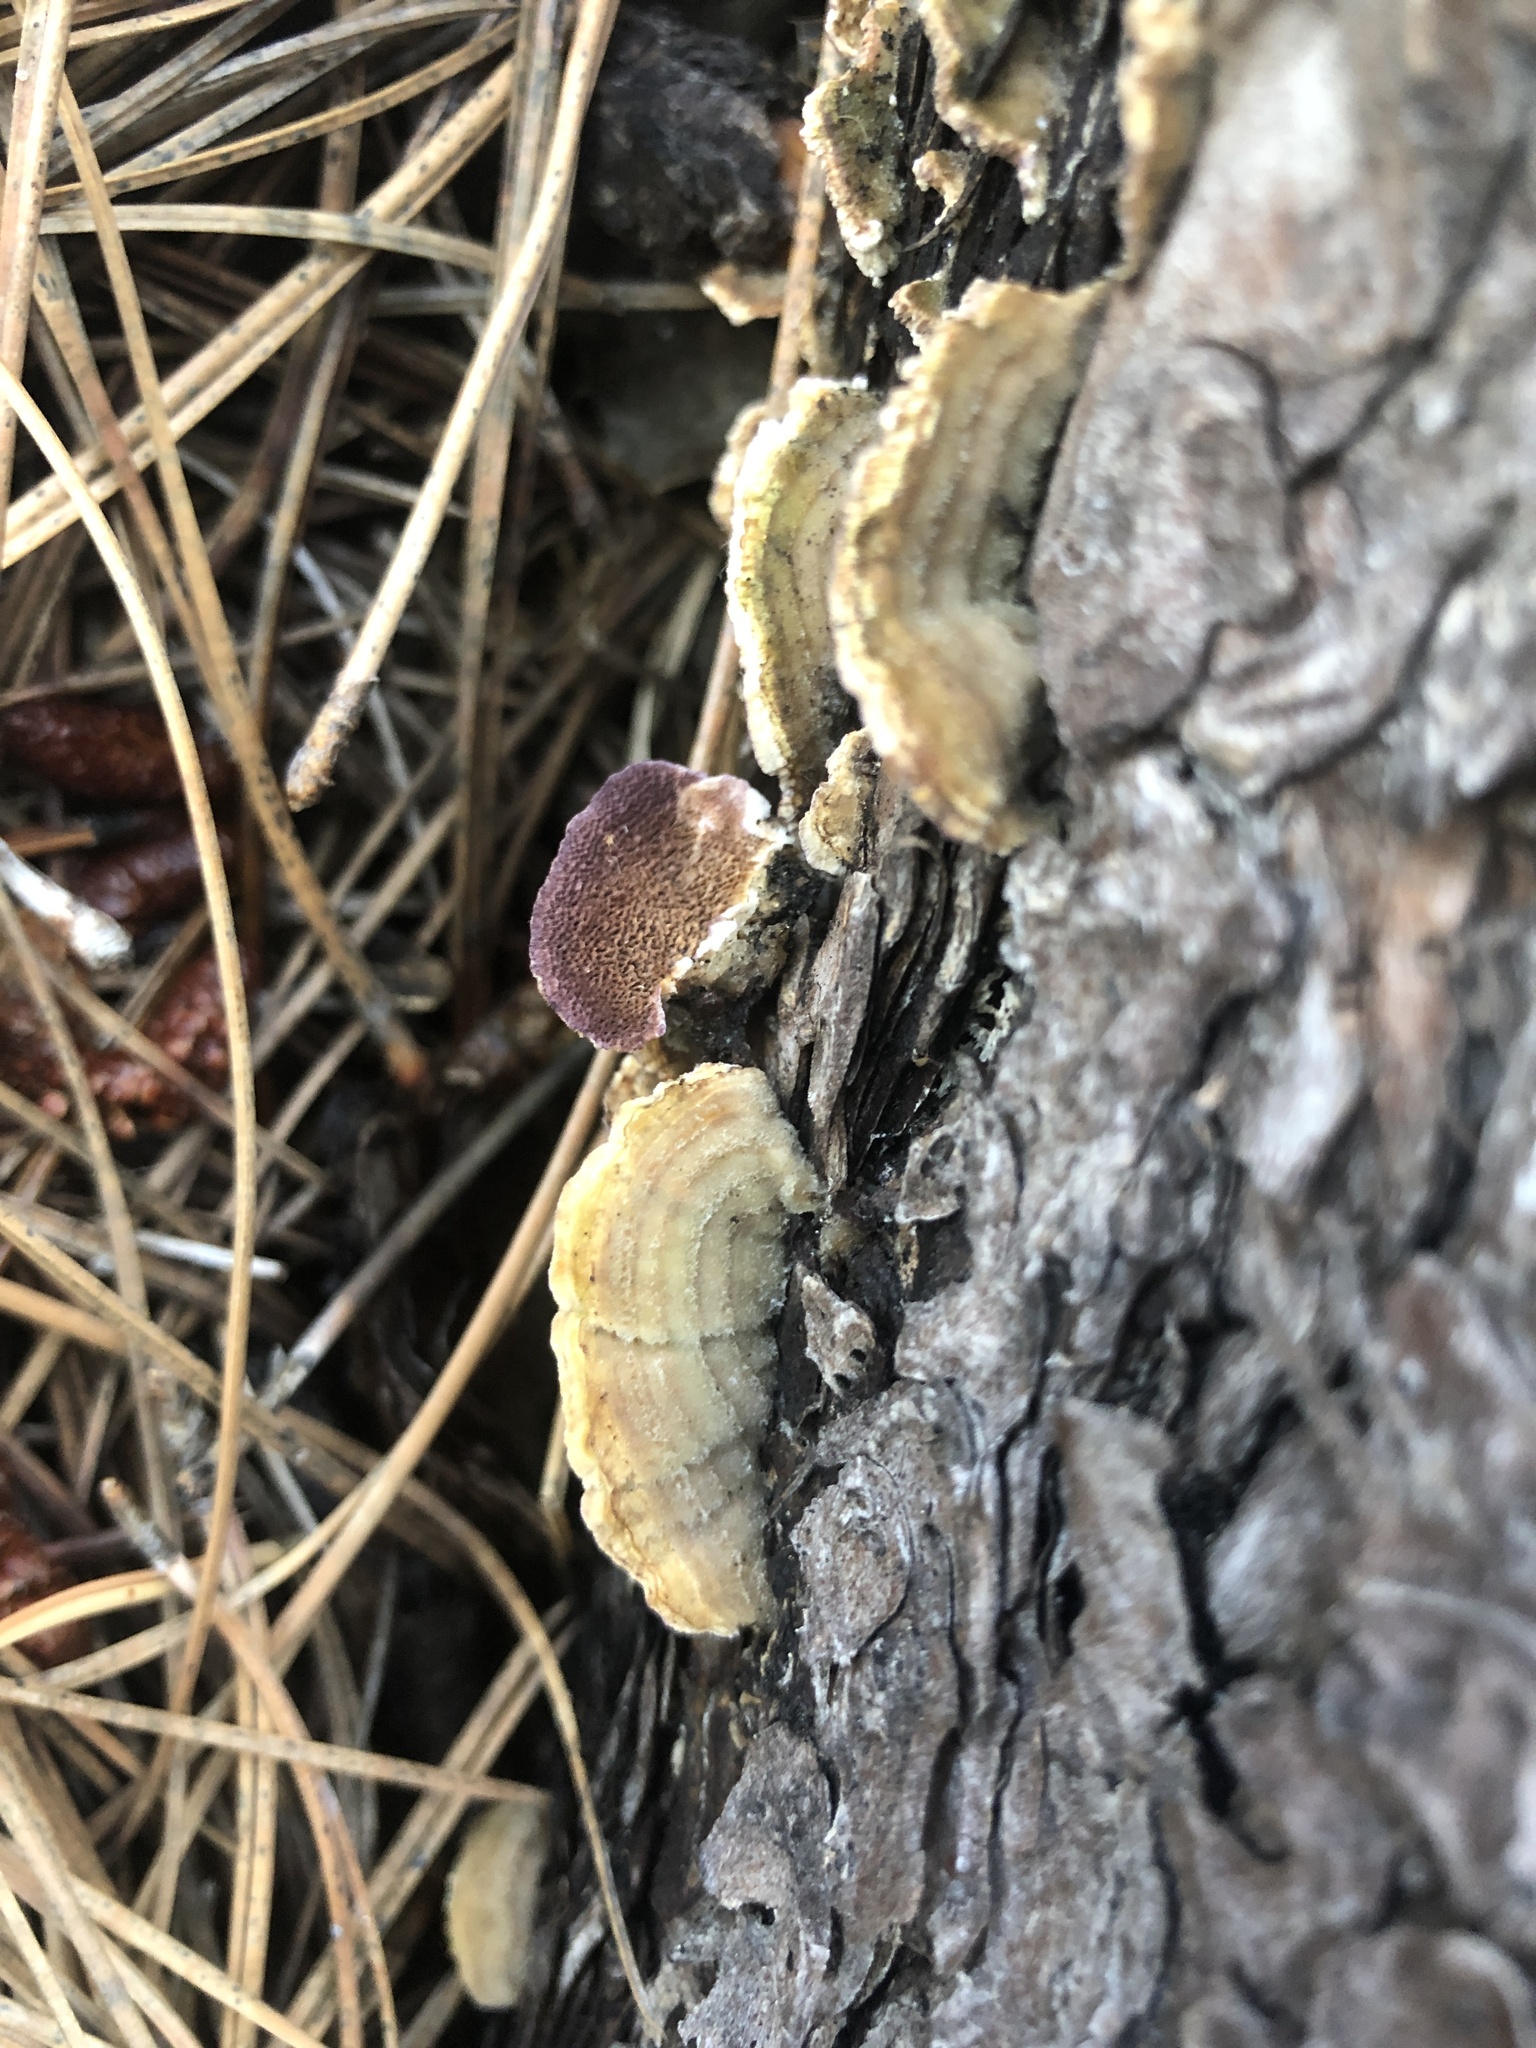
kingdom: Fungi
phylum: Basidiomycota
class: Agaricomycetes
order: Hymenochaetales
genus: Trichaptum
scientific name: Trichaptum abietinum
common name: Purplepore bracket
